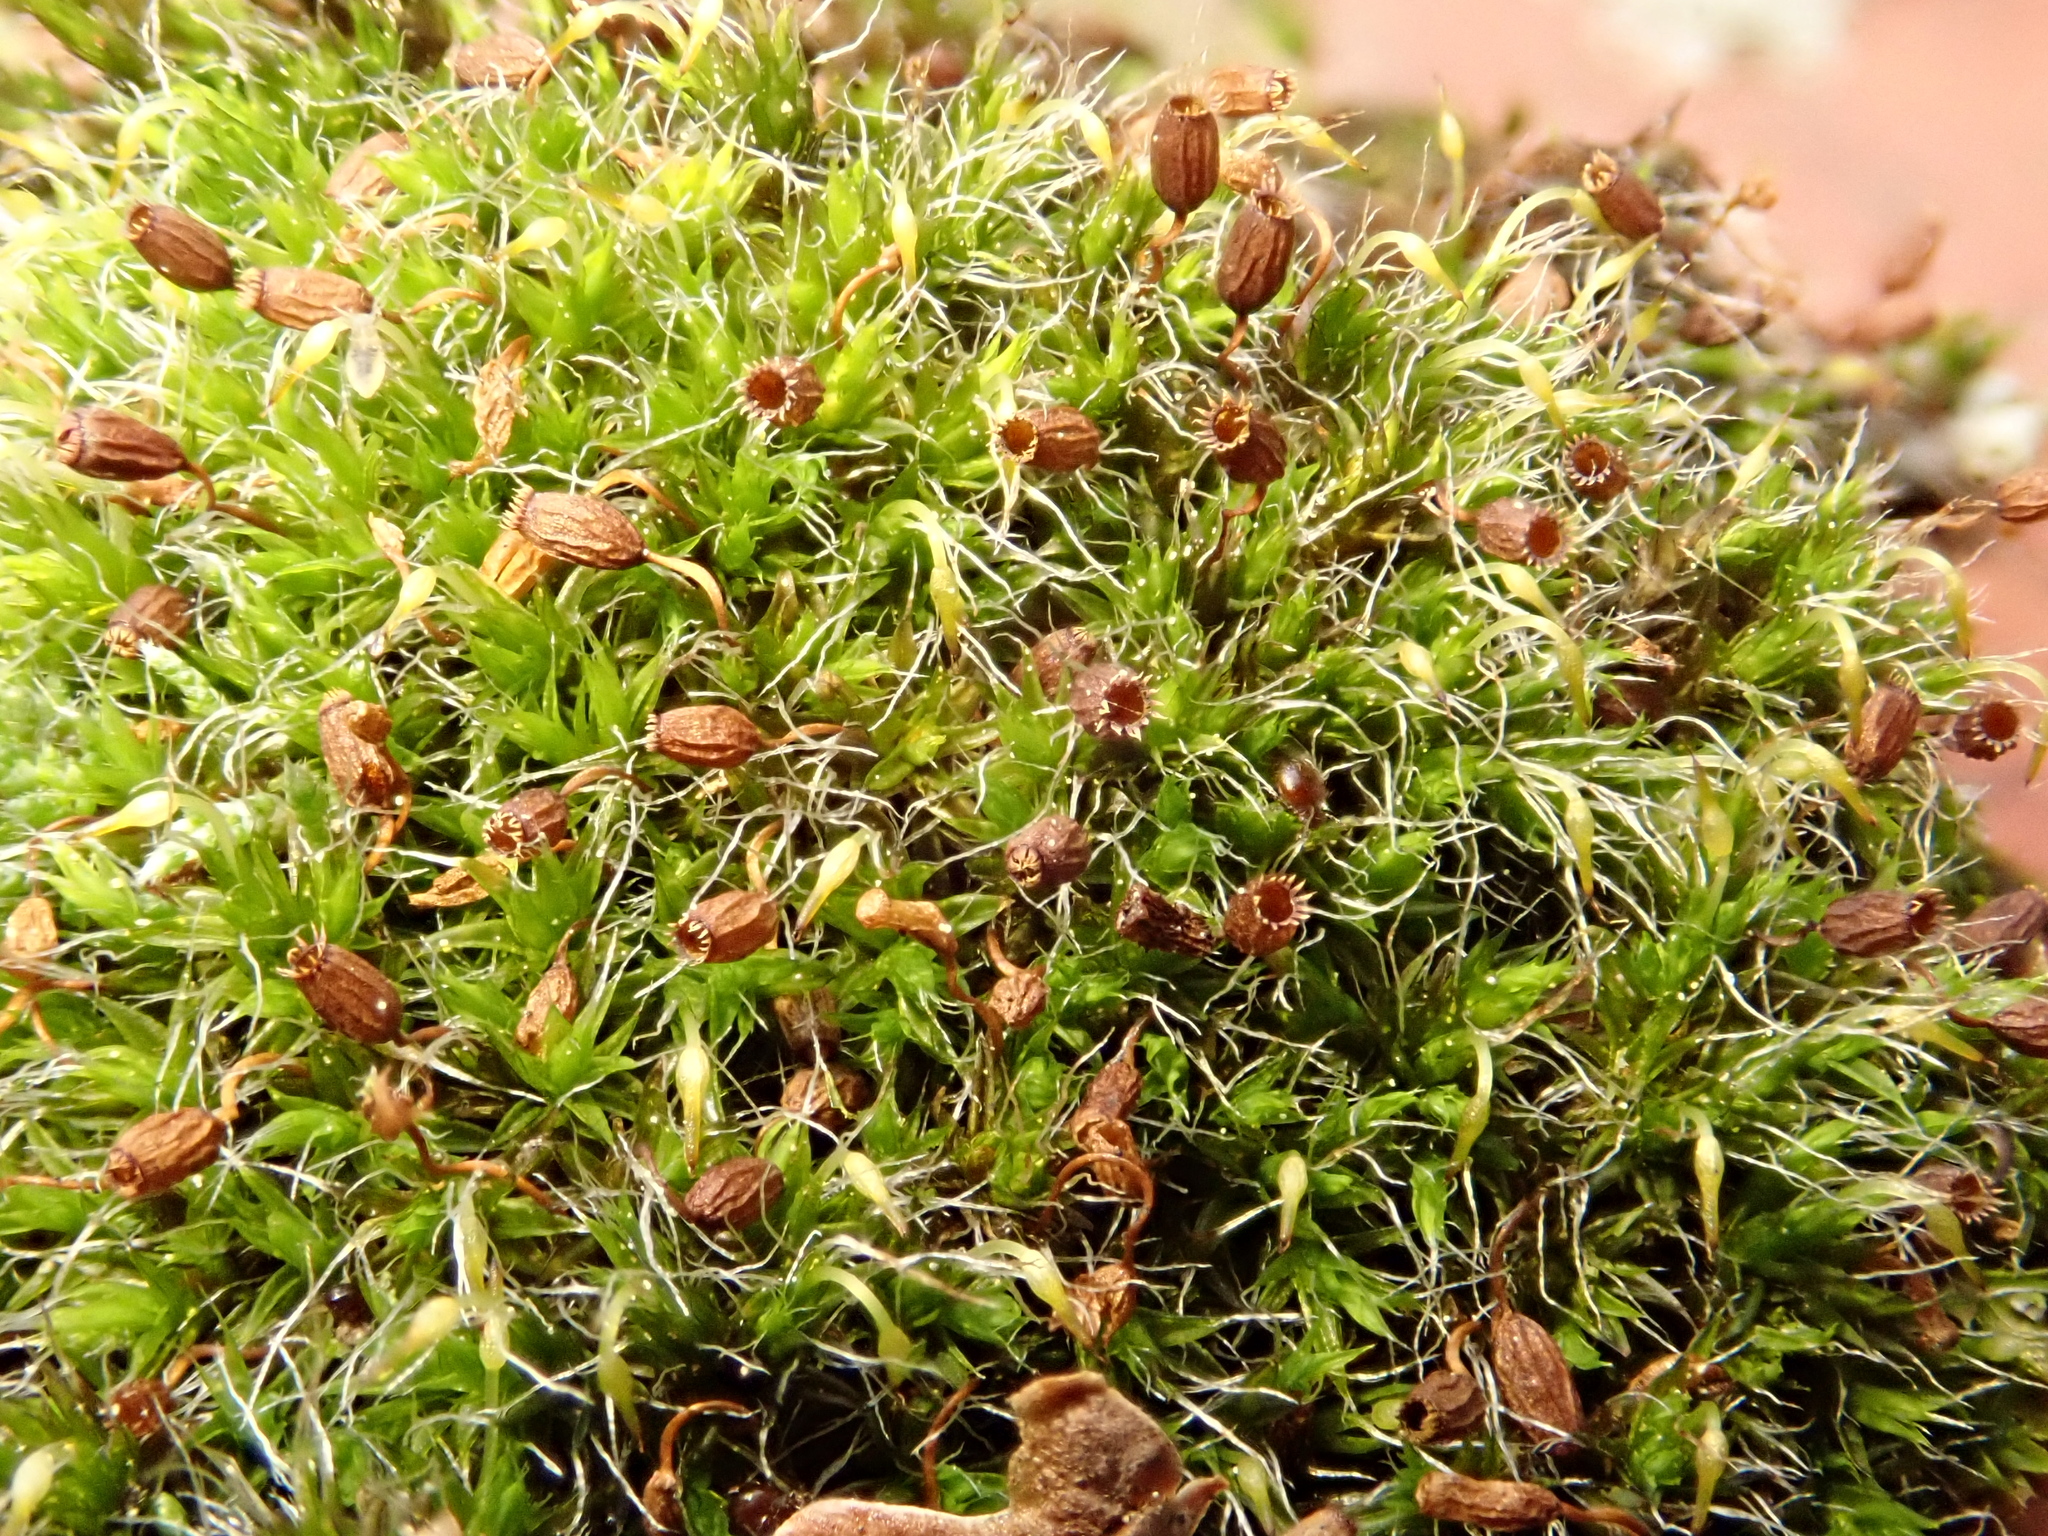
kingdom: Plantae
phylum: Bryophyta
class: Bryopsida
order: Grimmiales
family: Grimmiaceae
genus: Grimmia
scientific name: Grimmia pulvinata
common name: Grey-cushioned grimmia
